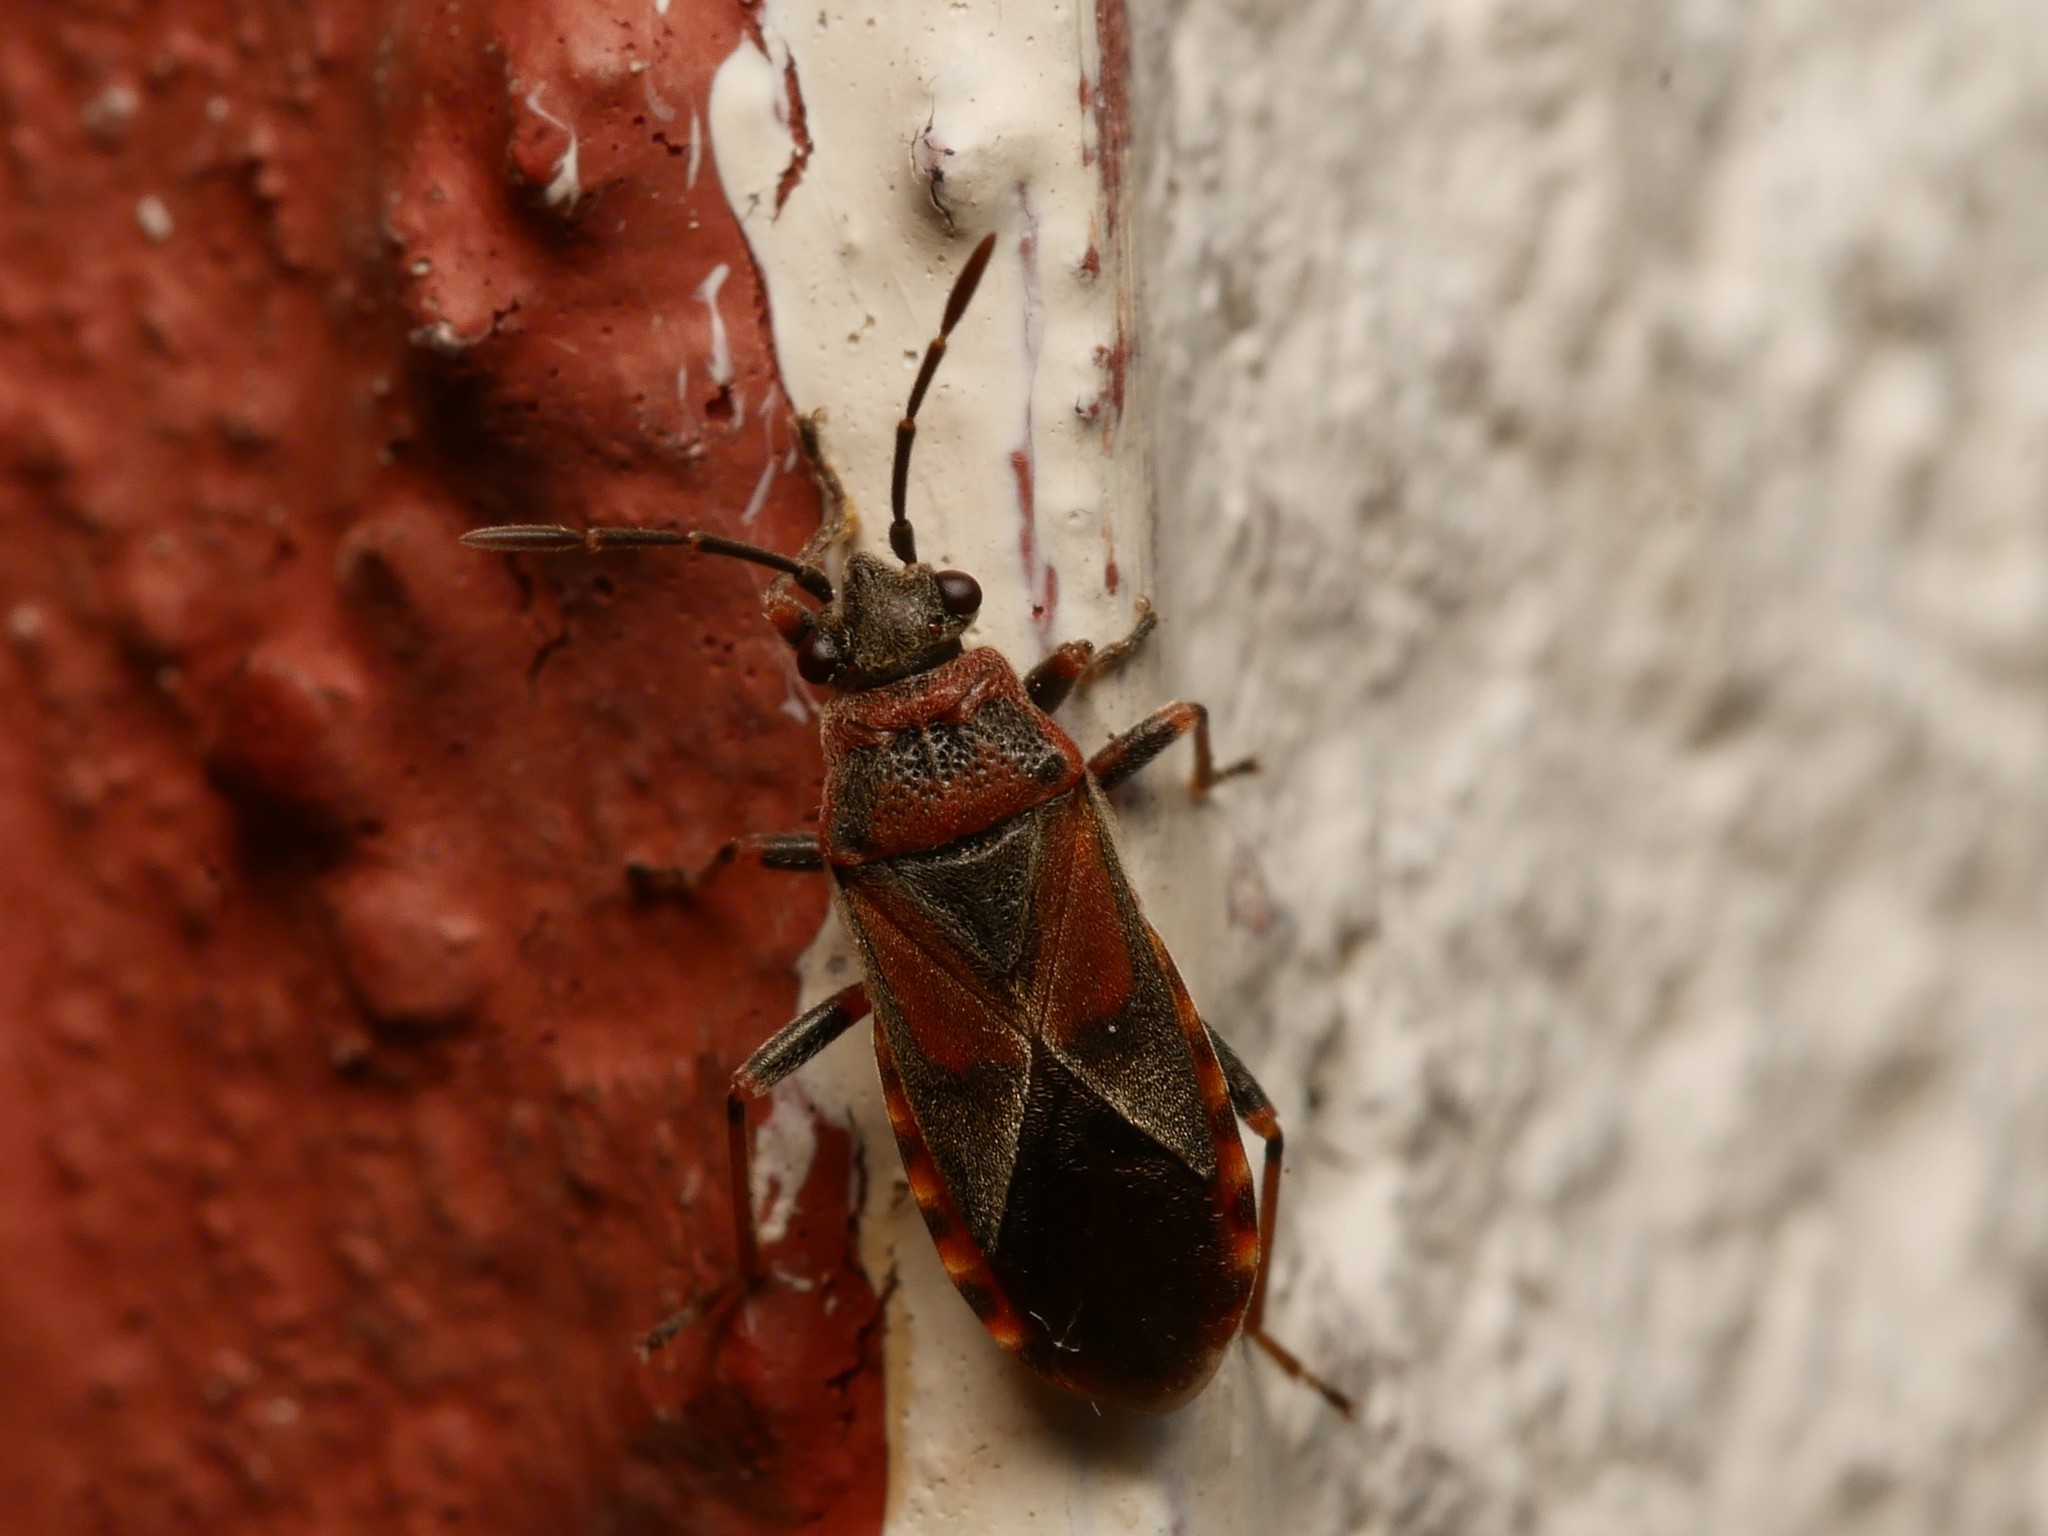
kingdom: Animalia
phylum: Arthropoda
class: Insecta
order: Hemiptera
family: Lygaeidae
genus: Arocatus
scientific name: Arocatus melanocephalus
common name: Lygaeid bug
